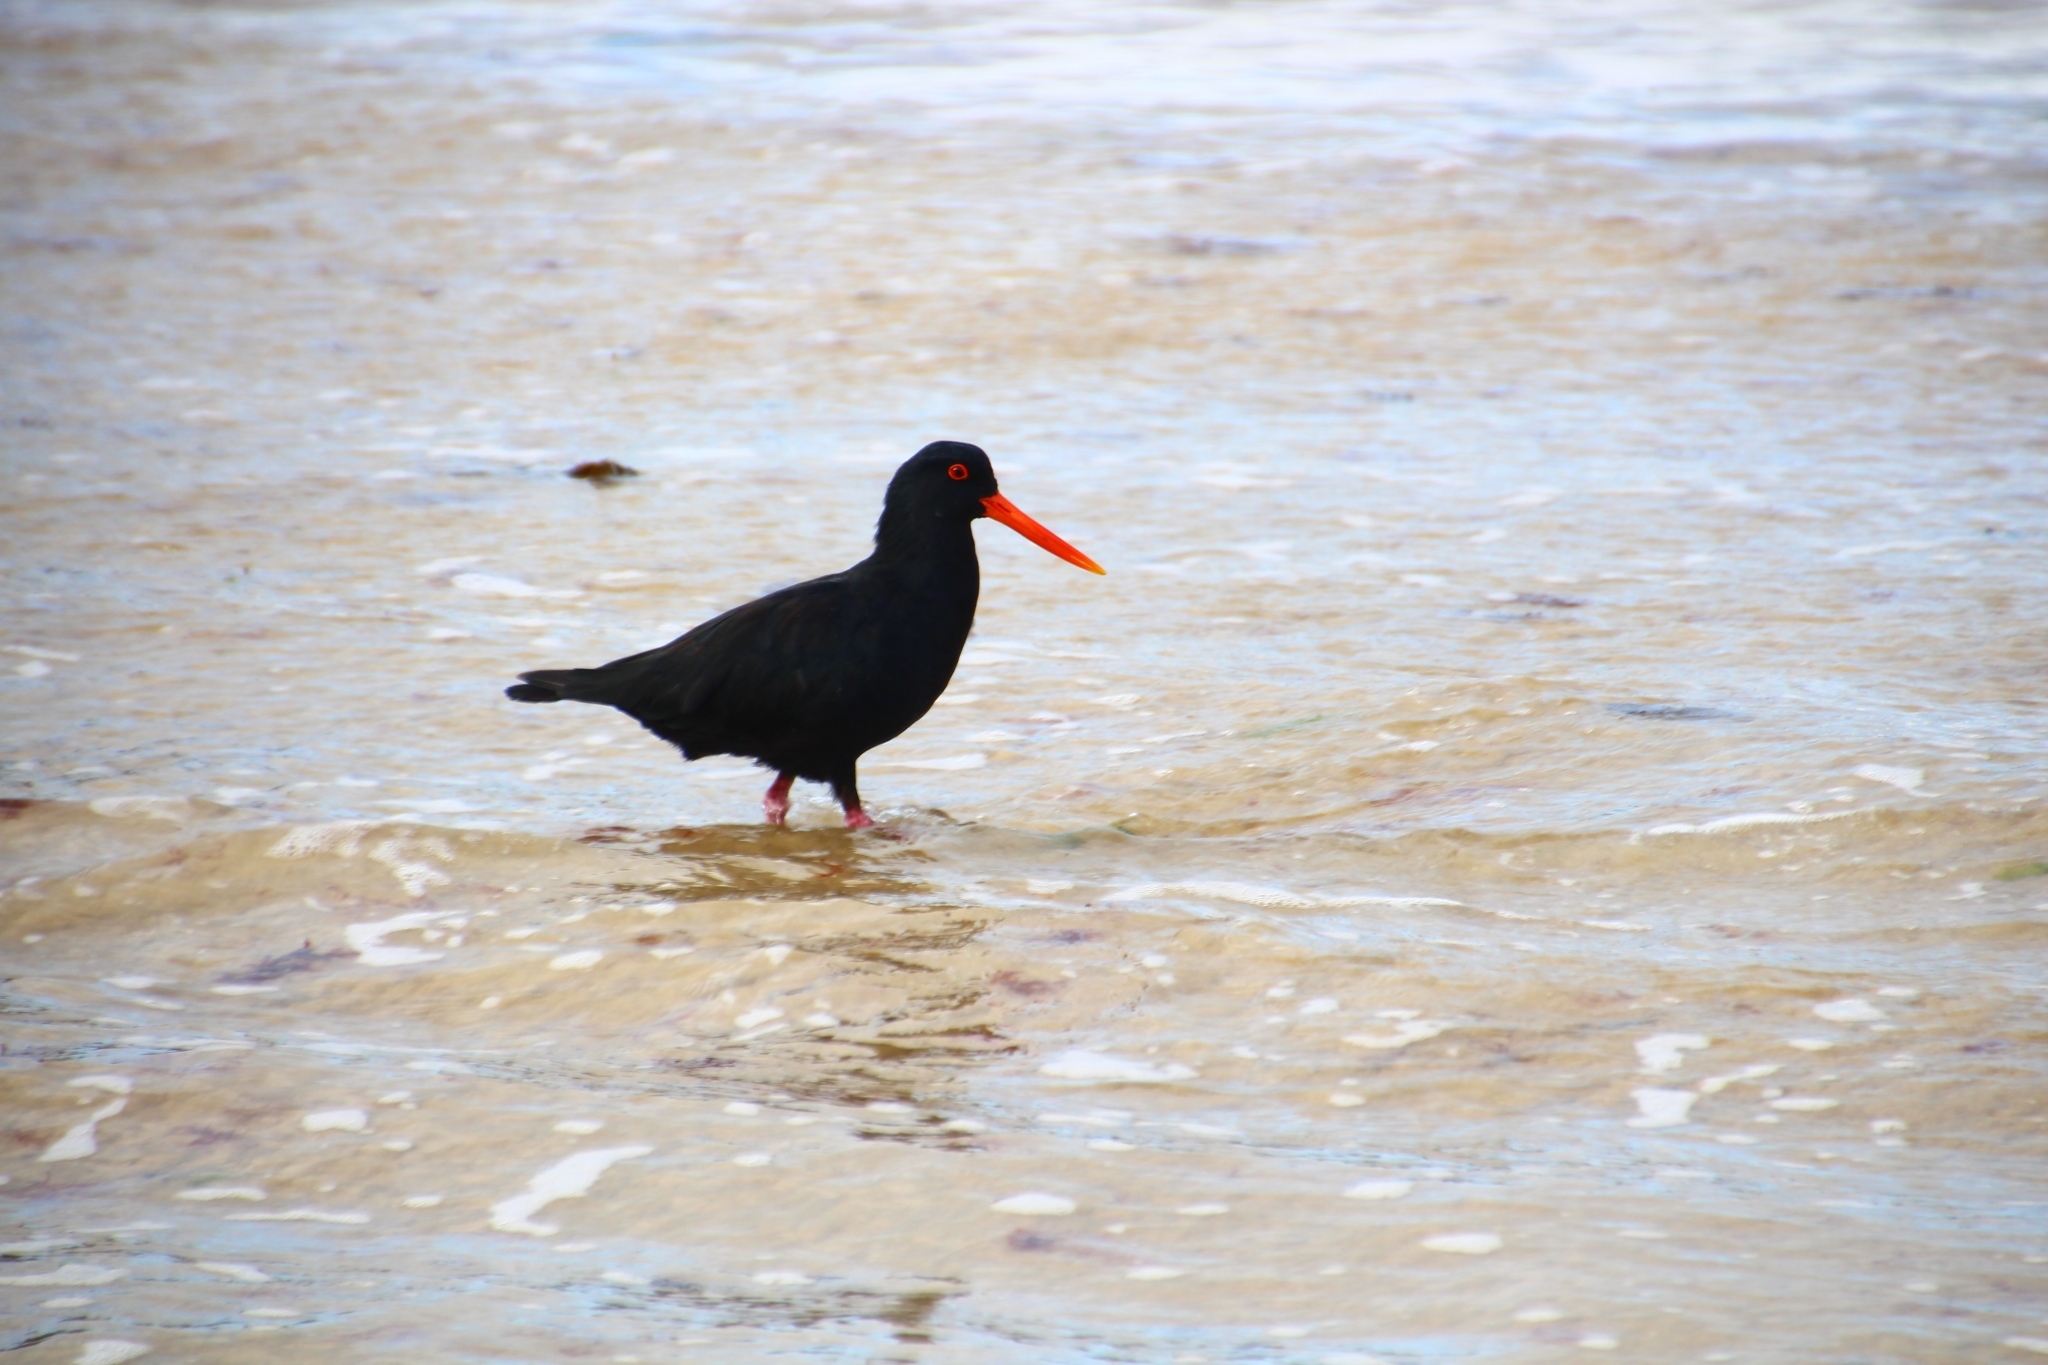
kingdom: Animalia
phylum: Chordata
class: Aves
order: Charadriiformes
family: Haematopodidae
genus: Haematopus
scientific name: Haematopus unicolor
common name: Variable oystercatcher
